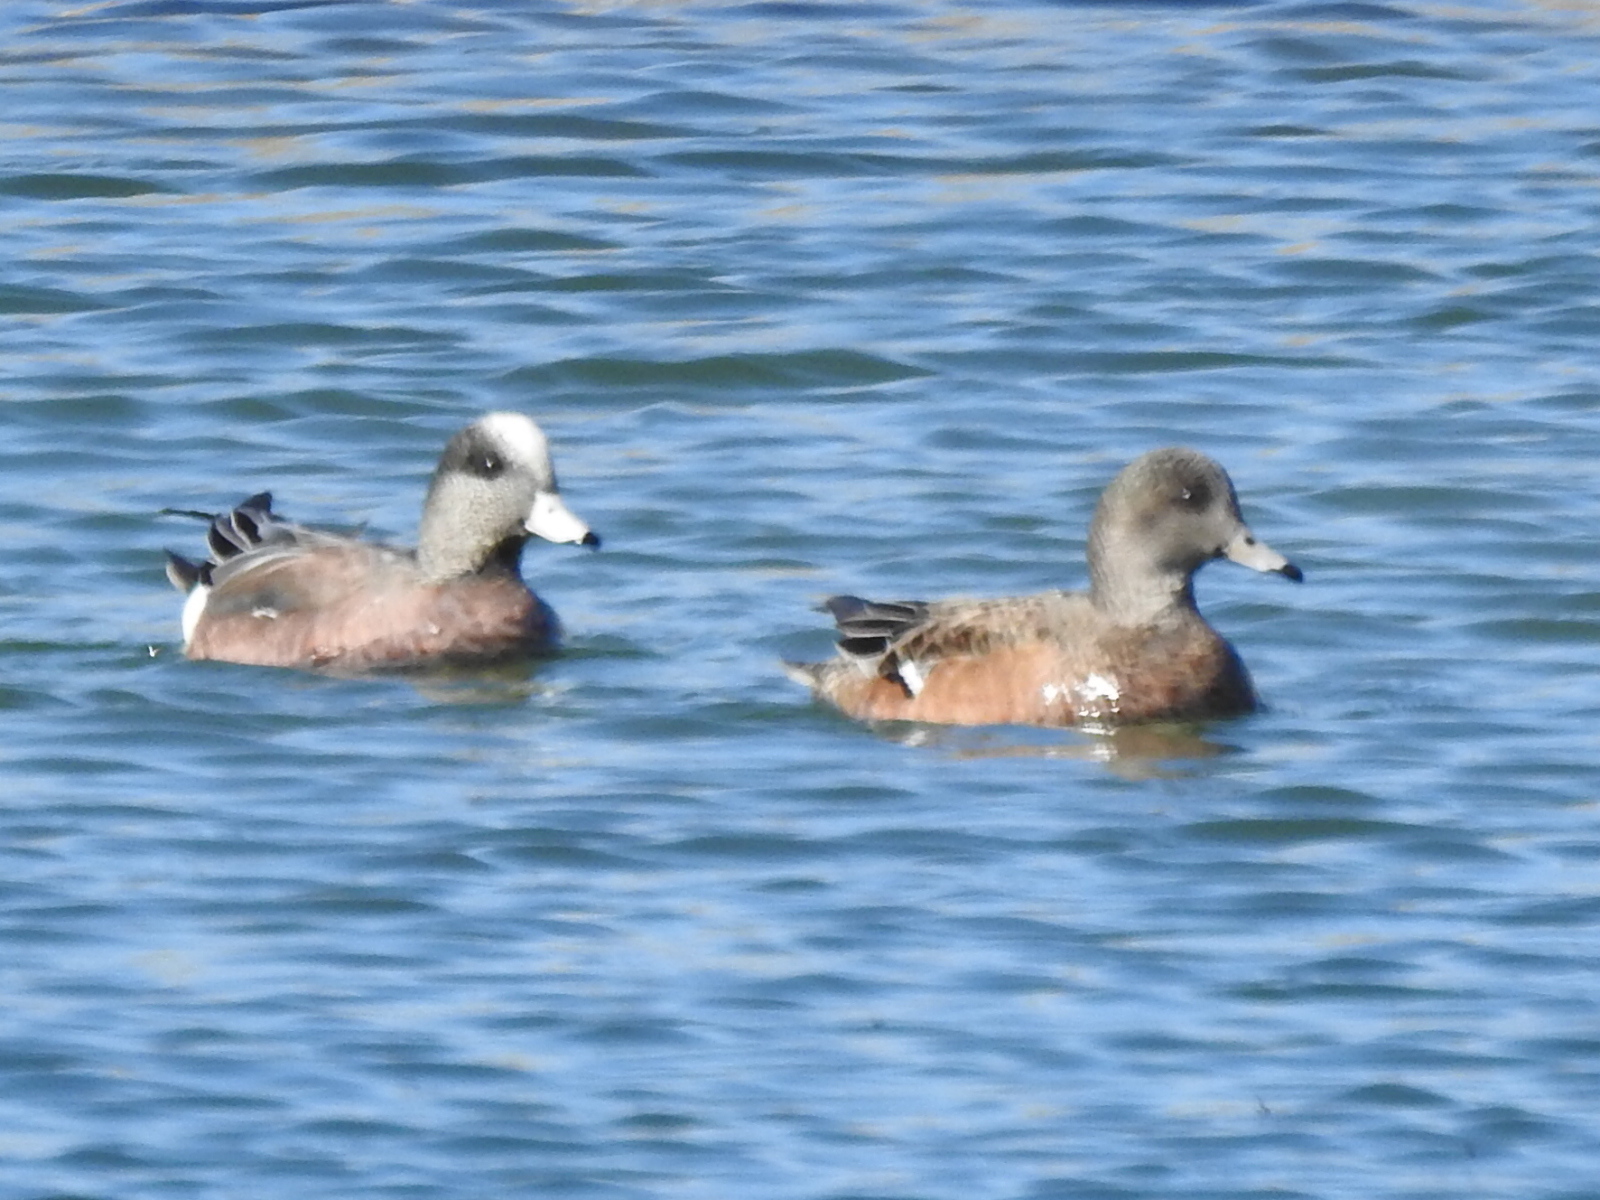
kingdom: Animalia
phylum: Chordata
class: Aves
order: Anseriformes
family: Anatidae
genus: Mareca
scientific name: Mareca americana
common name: American wigeon
